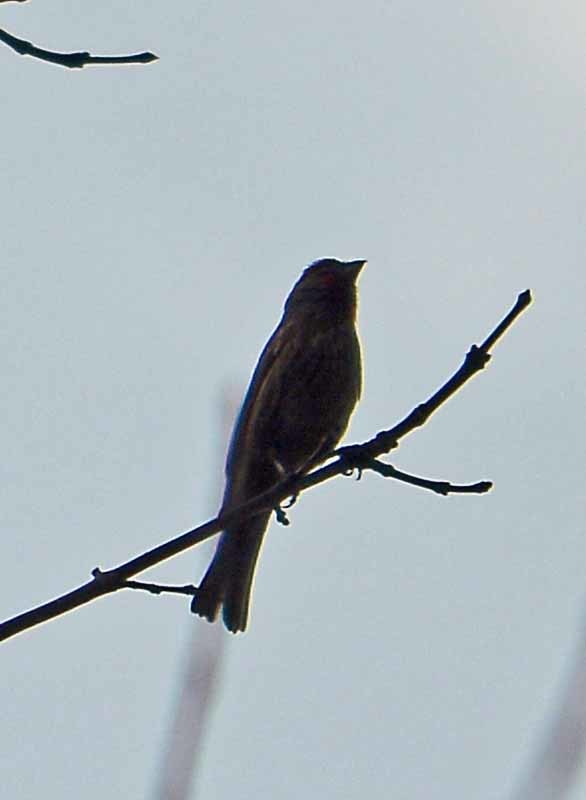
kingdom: Animalia
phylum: Chordata
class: Aves
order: Passeriformes
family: Fringillidae
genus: Haemorhous
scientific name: Haemorhous mexicanus
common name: House finch
